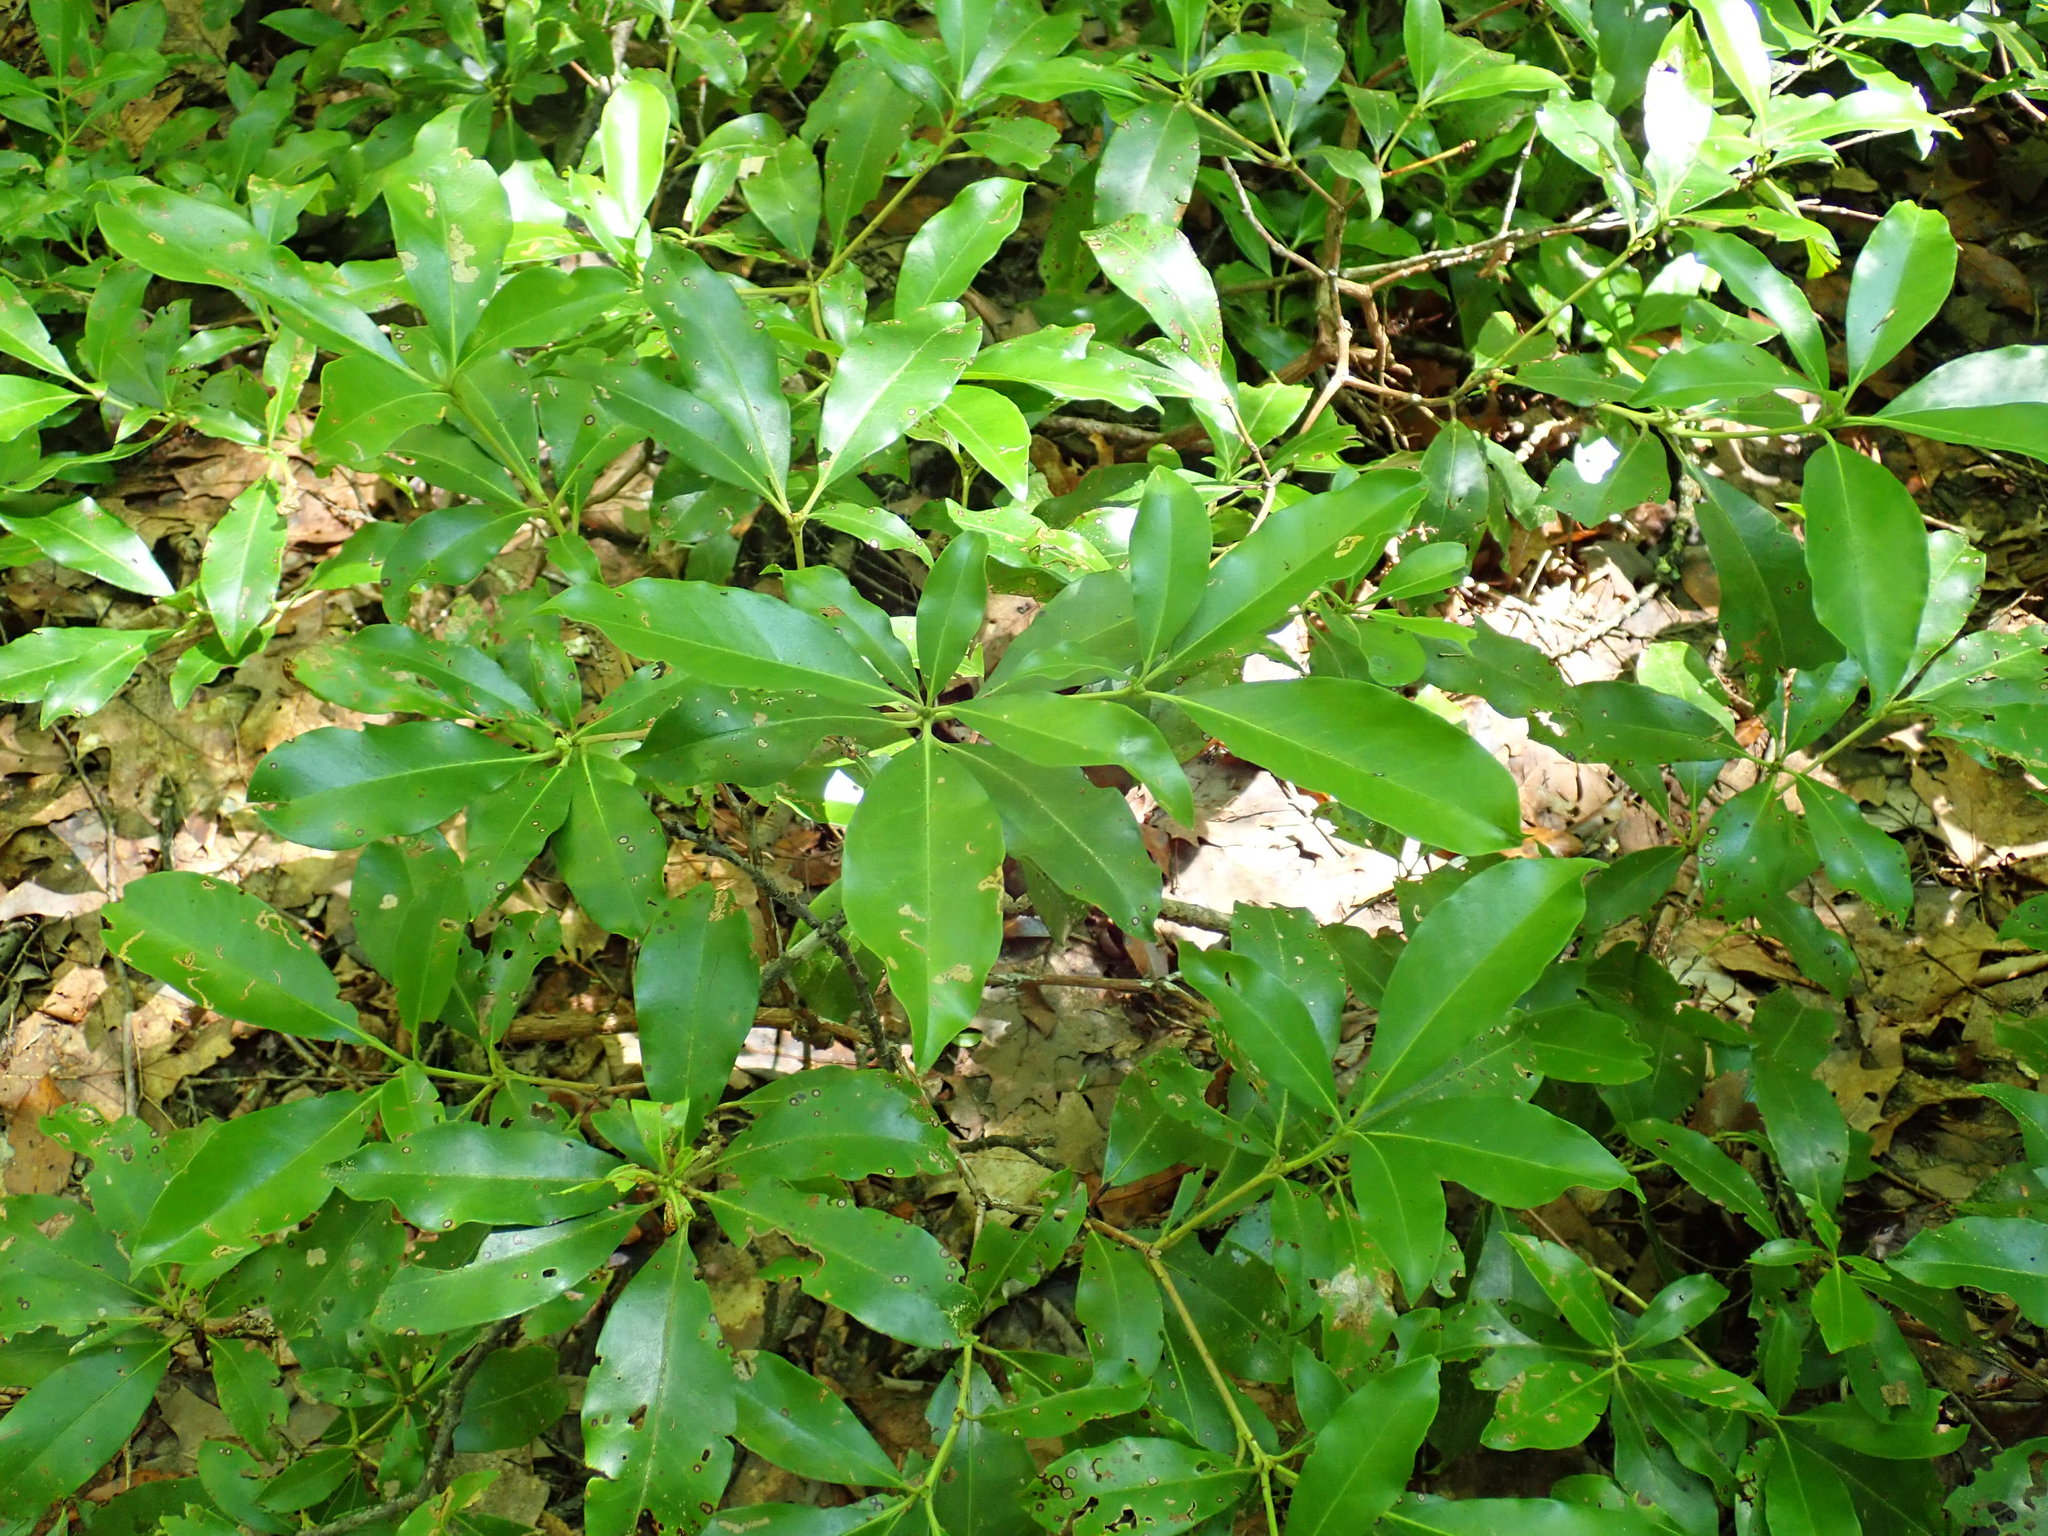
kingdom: Plantae
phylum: Tracheophyta
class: Magnoliopsida
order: Ericales
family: Ericaceae
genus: Kalmia
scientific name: Kalmia latifolia
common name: Mountain-laurel
